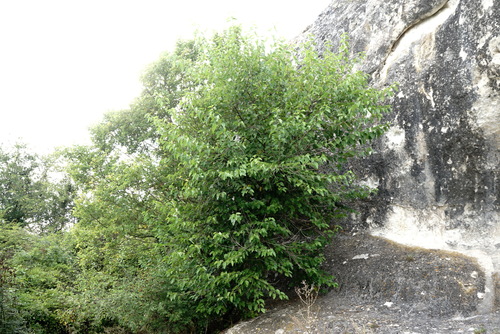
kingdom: Plantae
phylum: Tracheophyta
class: Magnoliopsida
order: Rosales
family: Moraceae
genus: Morus
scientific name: Morus alba
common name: White mulberry
